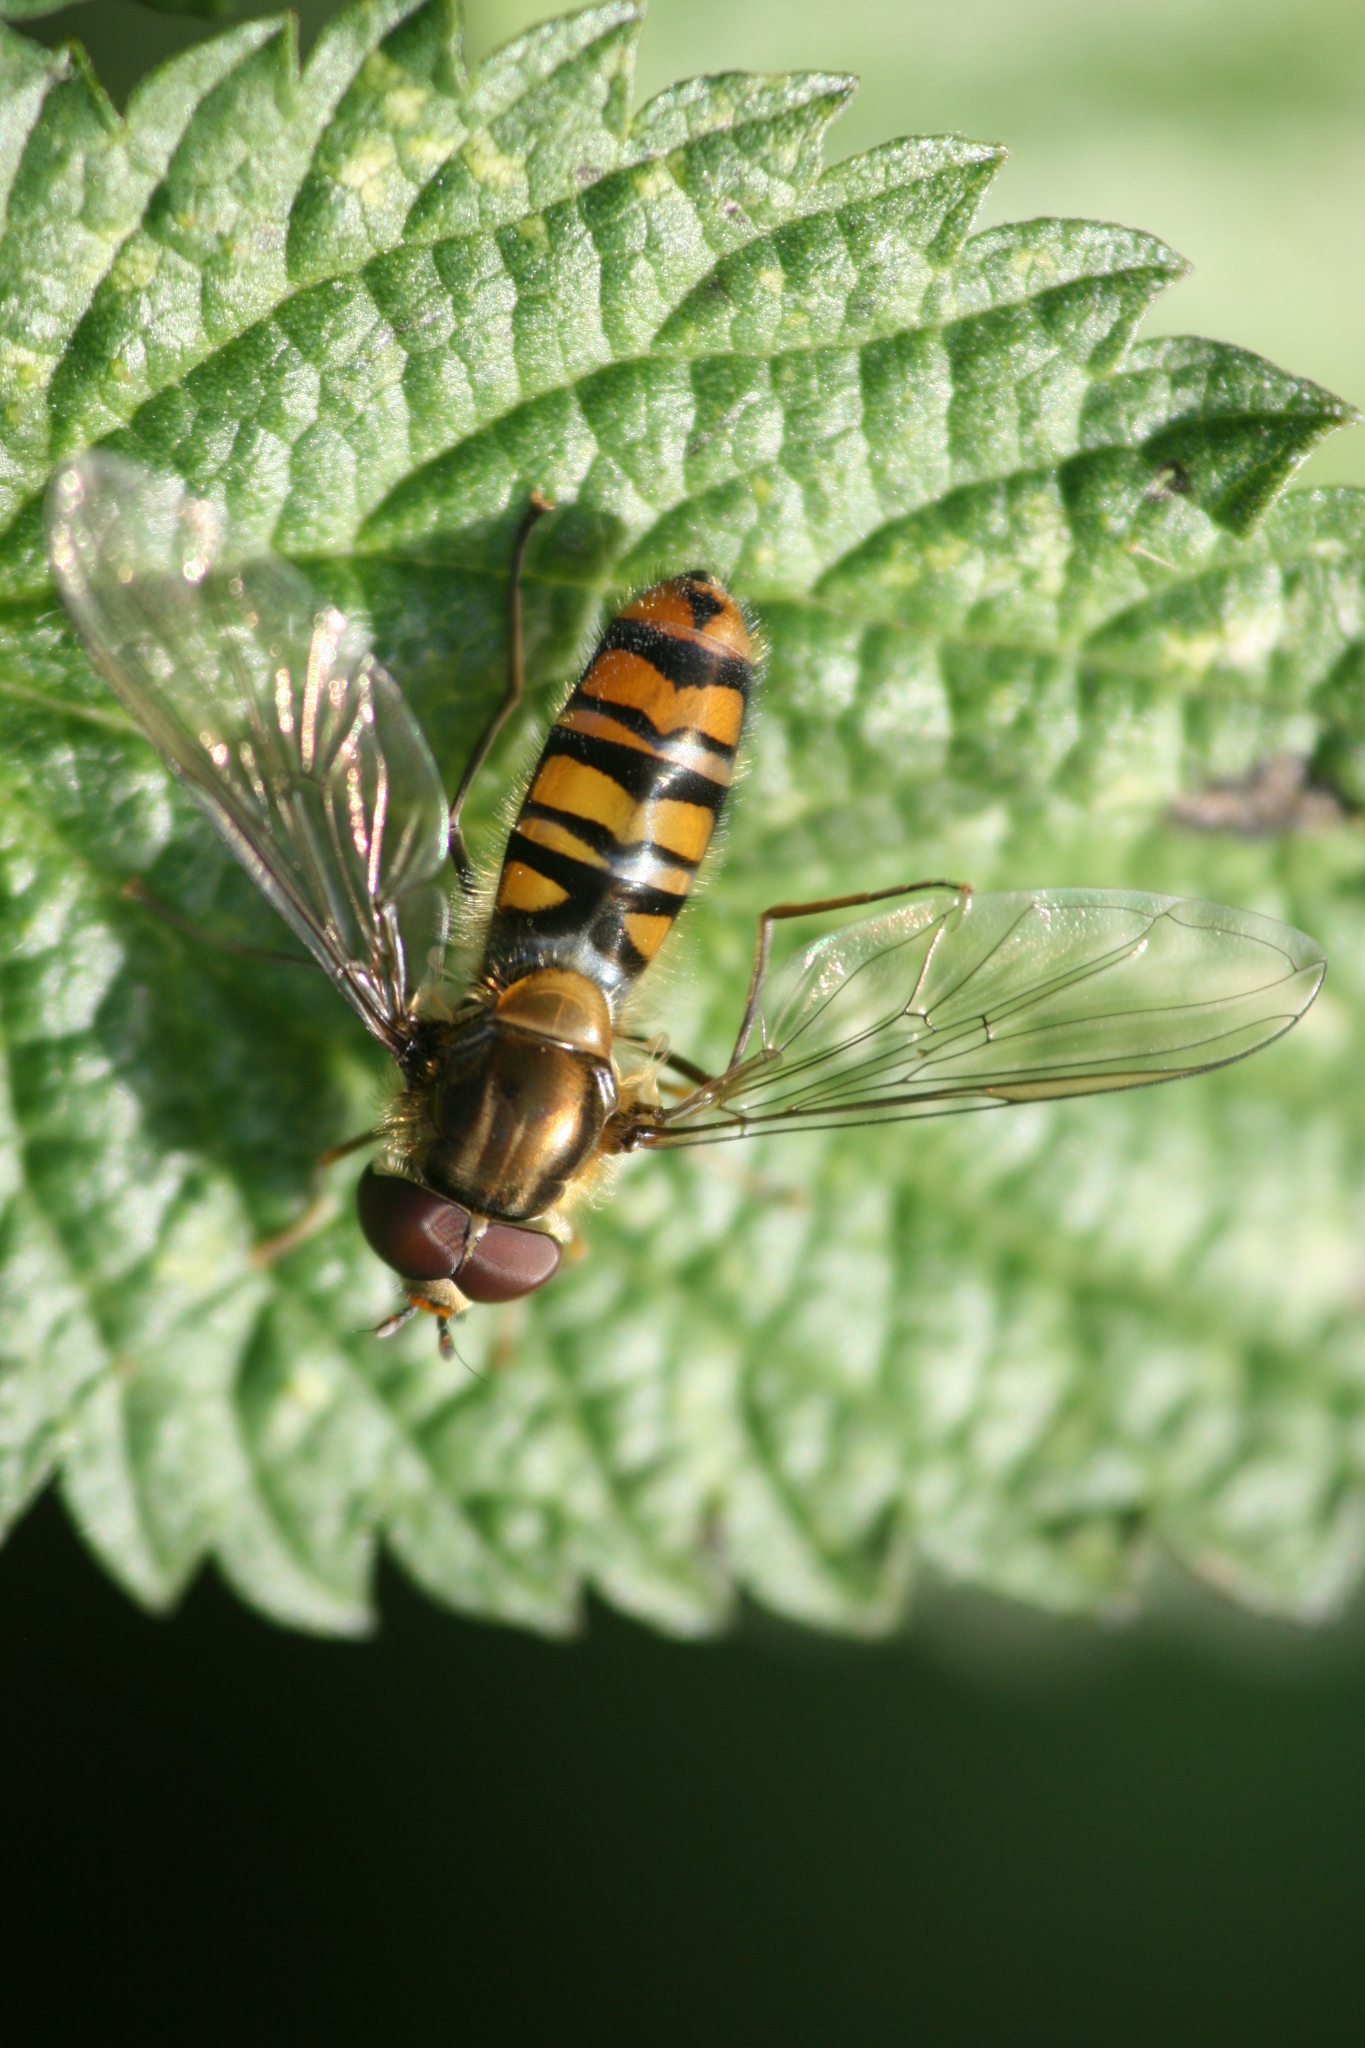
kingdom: Animalia
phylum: Arthropoda
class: Insecta
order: Diptera
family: Syrphidae
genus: Episyrphus
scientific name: Episyrphus balteatus
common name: Marmalade hoverfly
